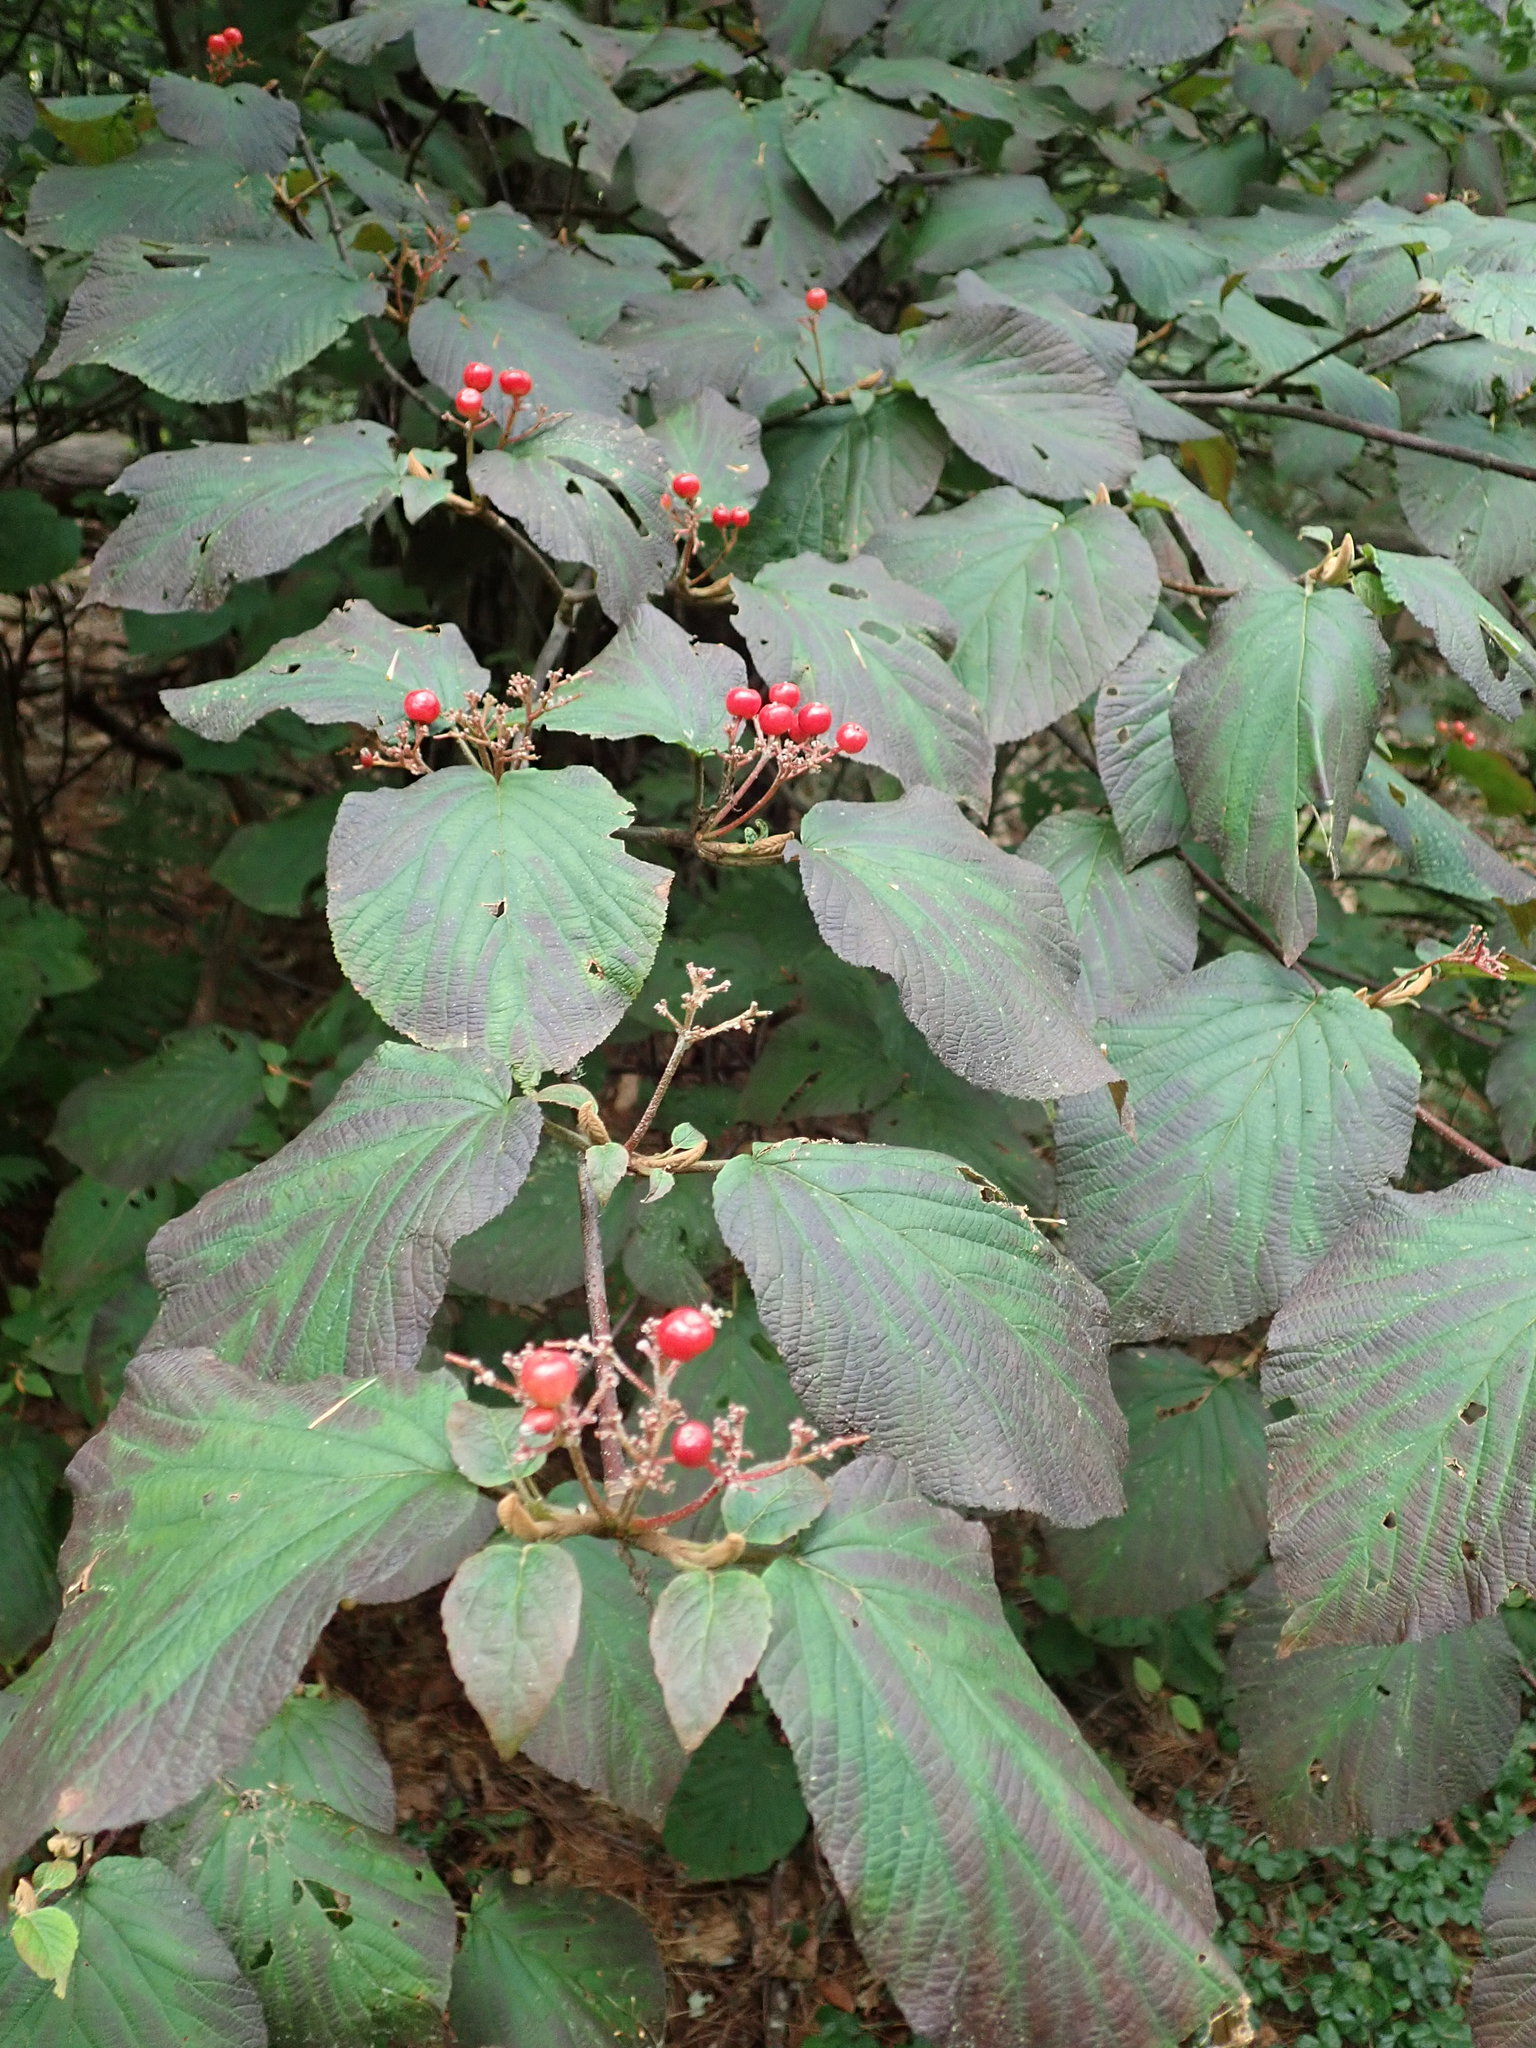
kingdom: Plantae
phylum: Tracheophyta
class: Magnoliopsida
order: Dipsacales
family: Viburnaceae
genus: Viburnum
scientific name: Viburnum lantanoides
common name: Hobblebush
